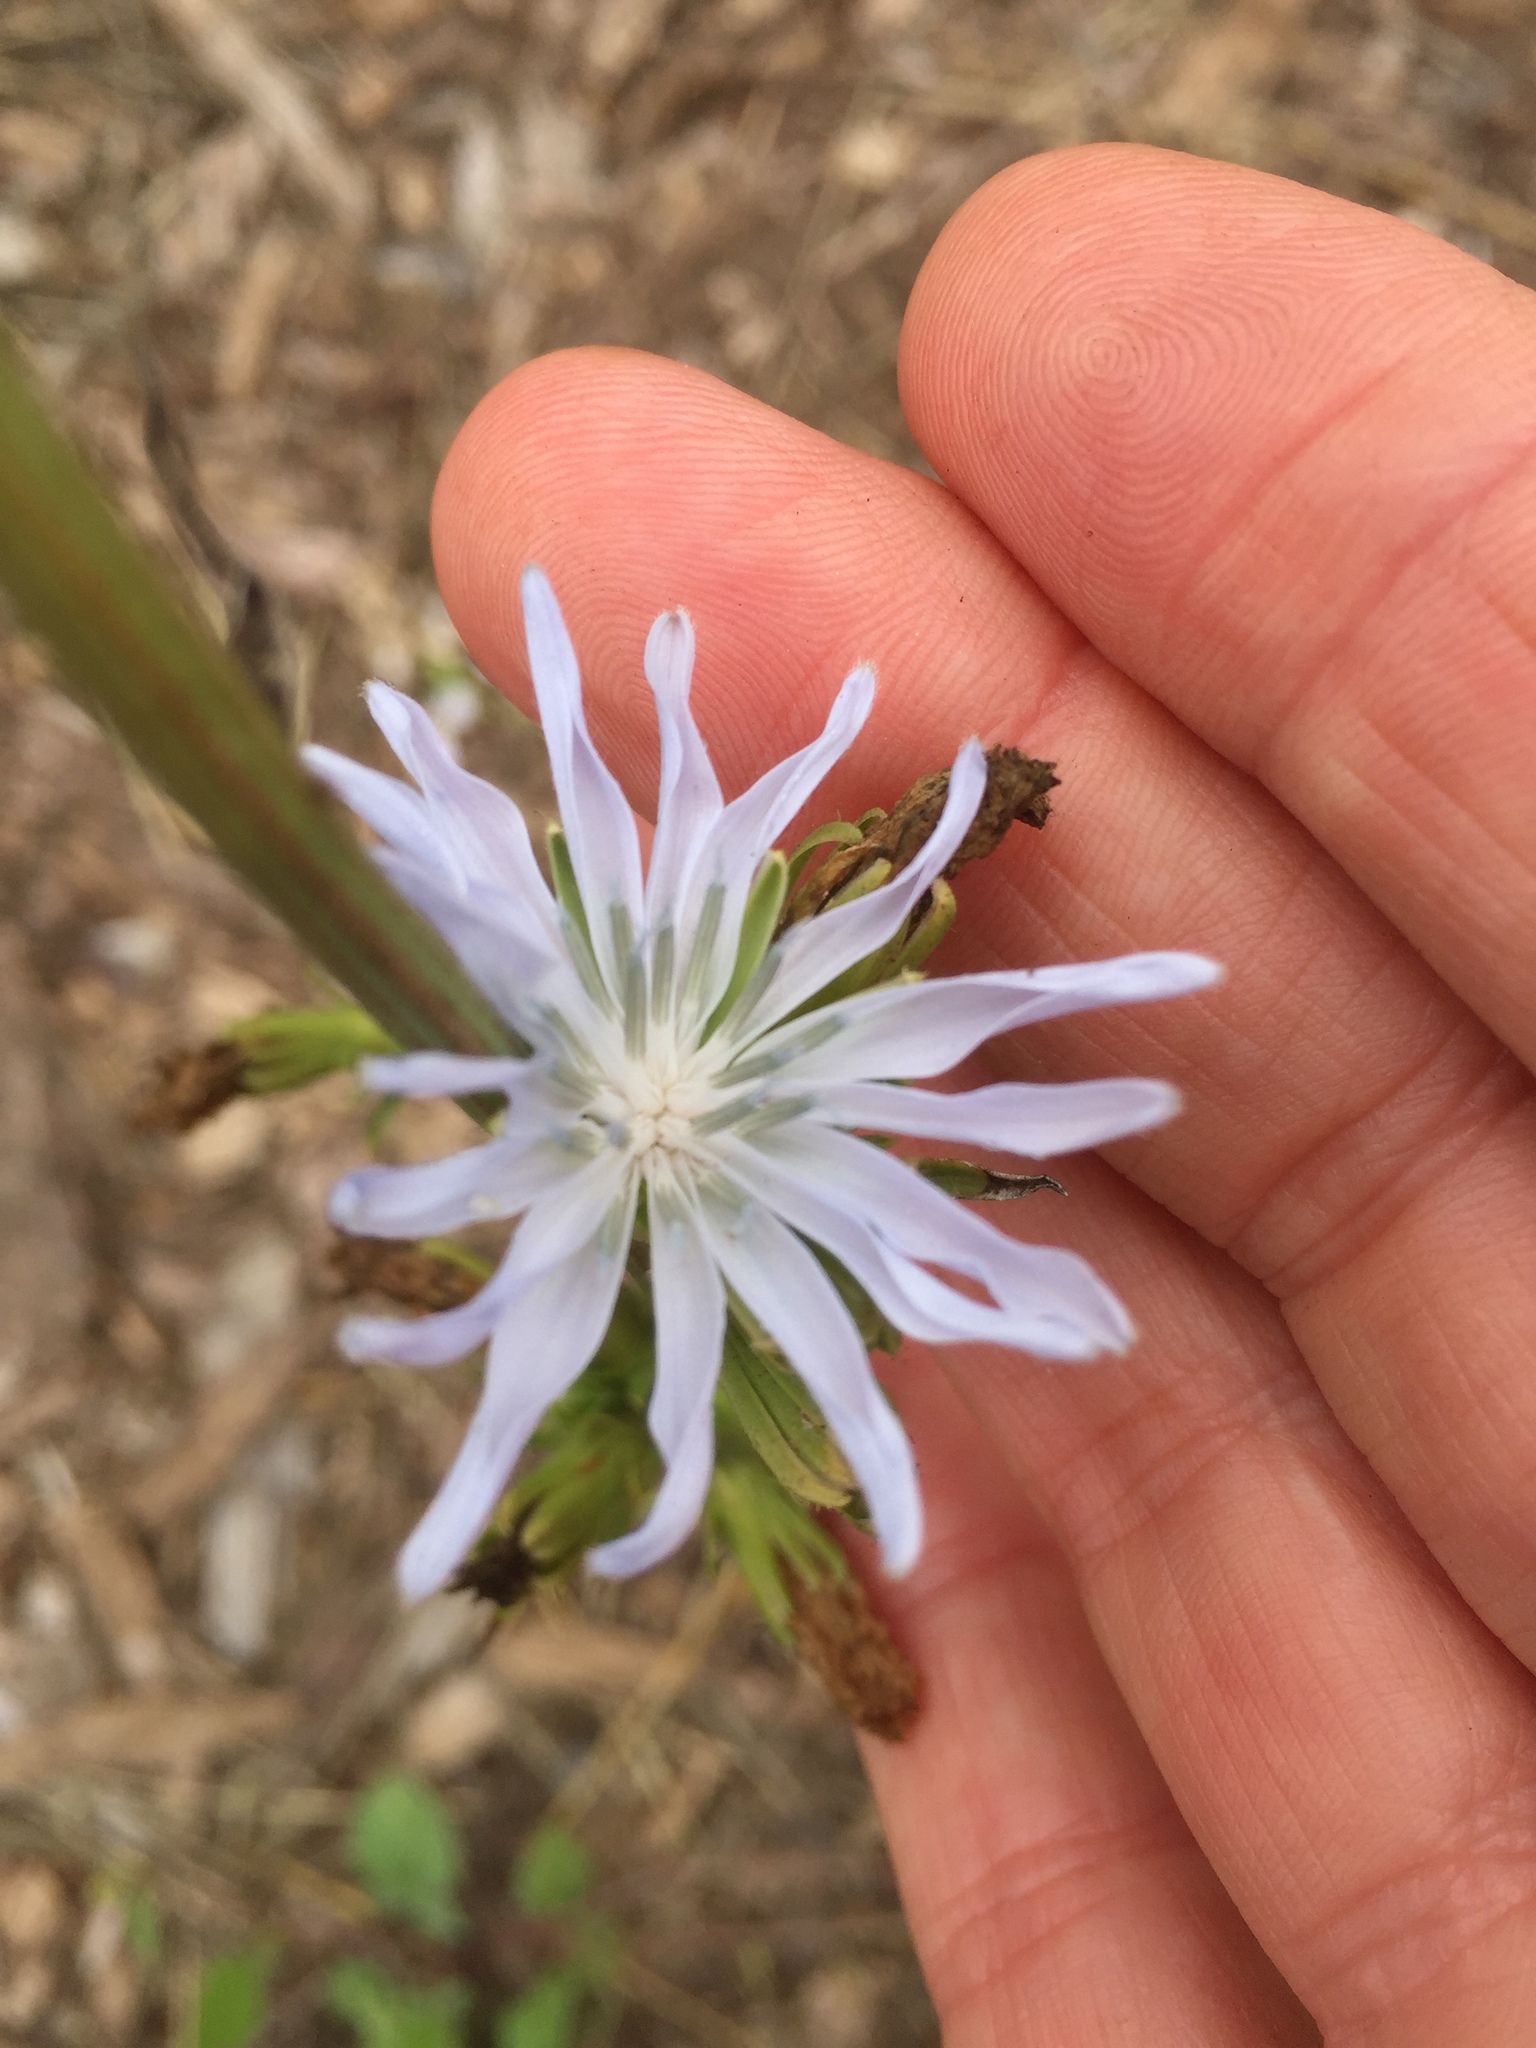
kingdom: Plantae
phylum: Tracheophyta
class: Magnoliopsida
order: Asterales
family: Asteraceae
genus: Cichorium
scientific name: Cichorium intybus
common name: Chicory
